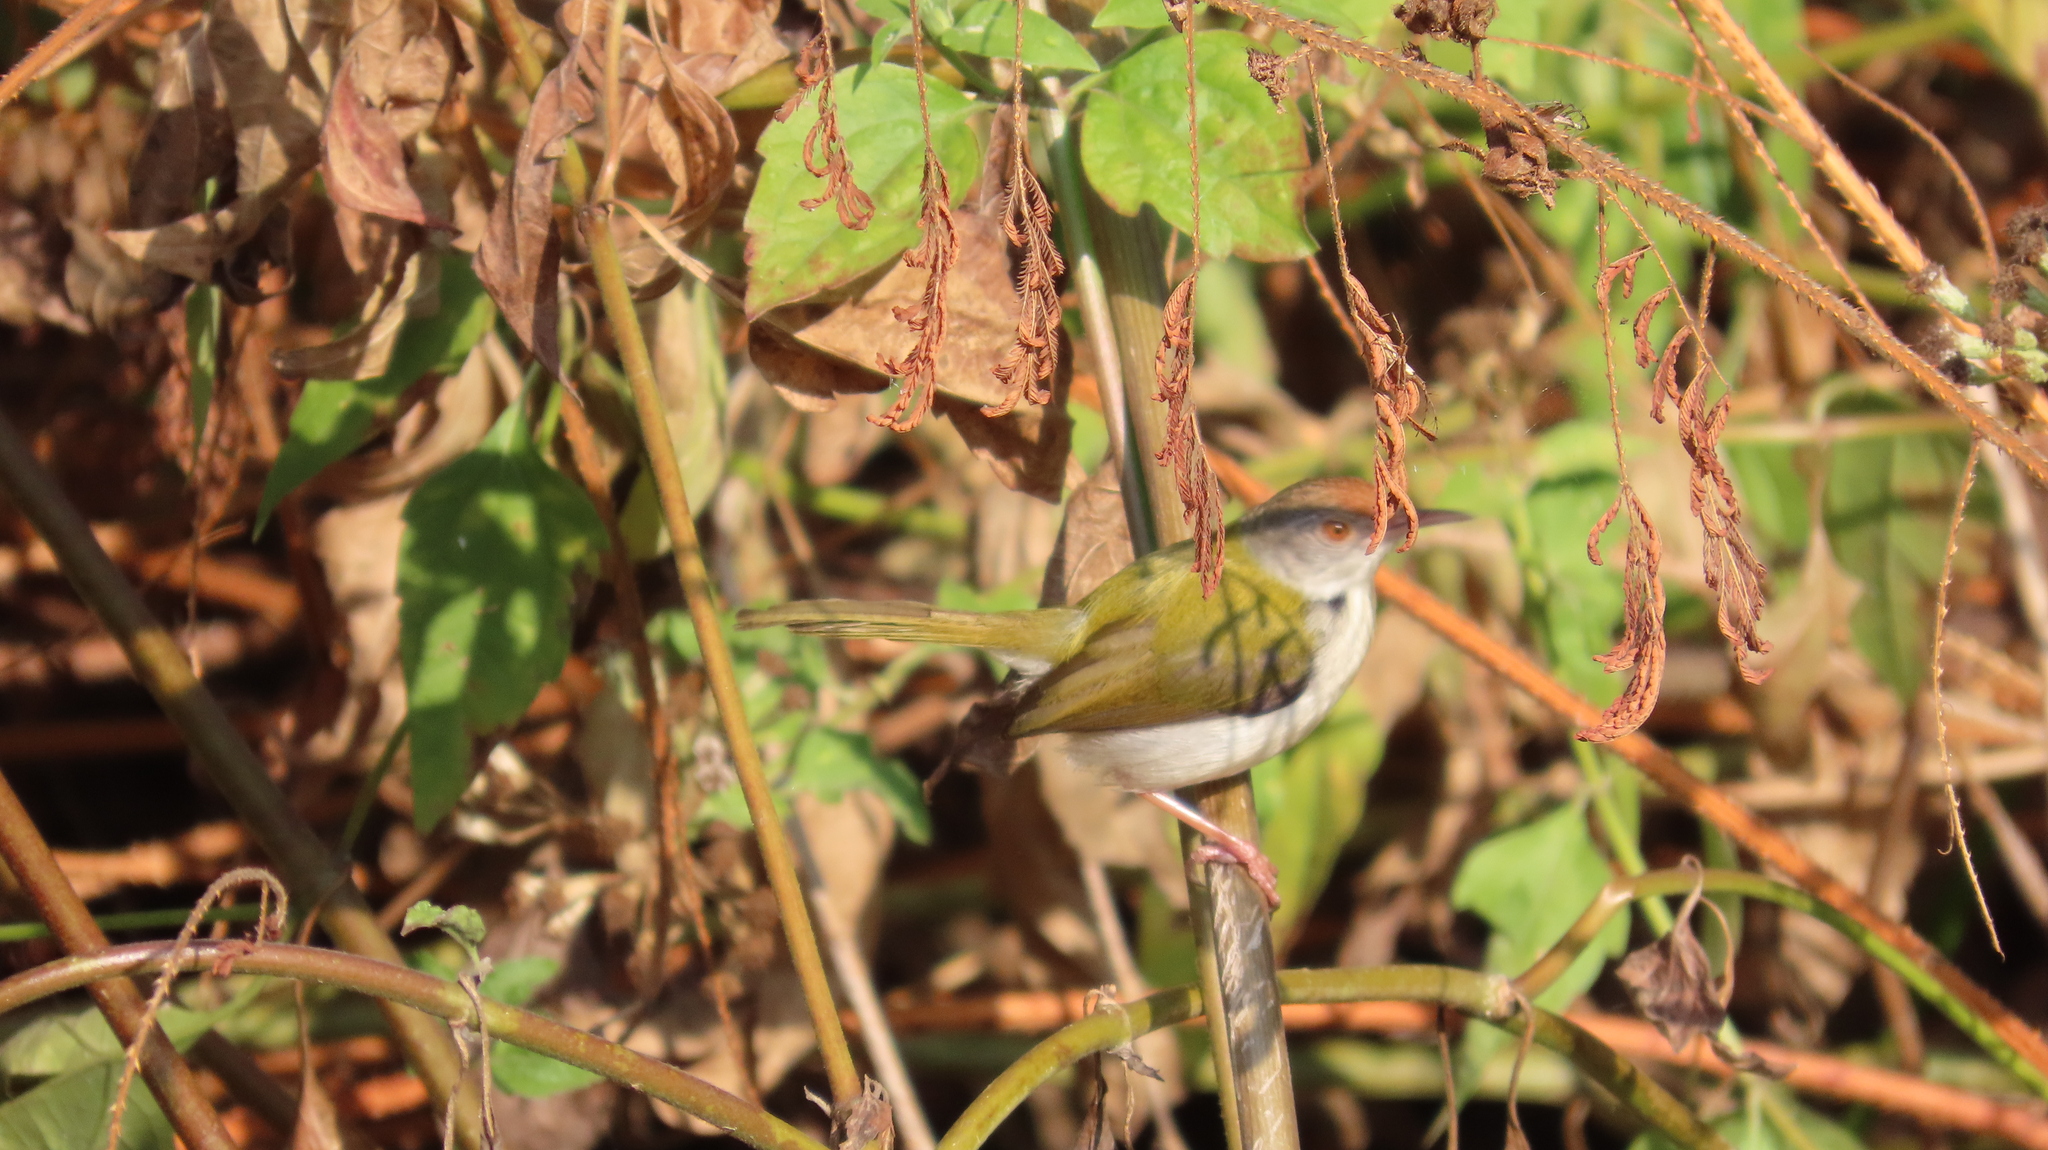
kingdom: Animalia
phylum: Chordata
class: Aves
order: Passeriformes
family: Cisticolidae
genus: Orthotomus
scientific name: Orthotomus sutorius
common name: Common tailorbird
